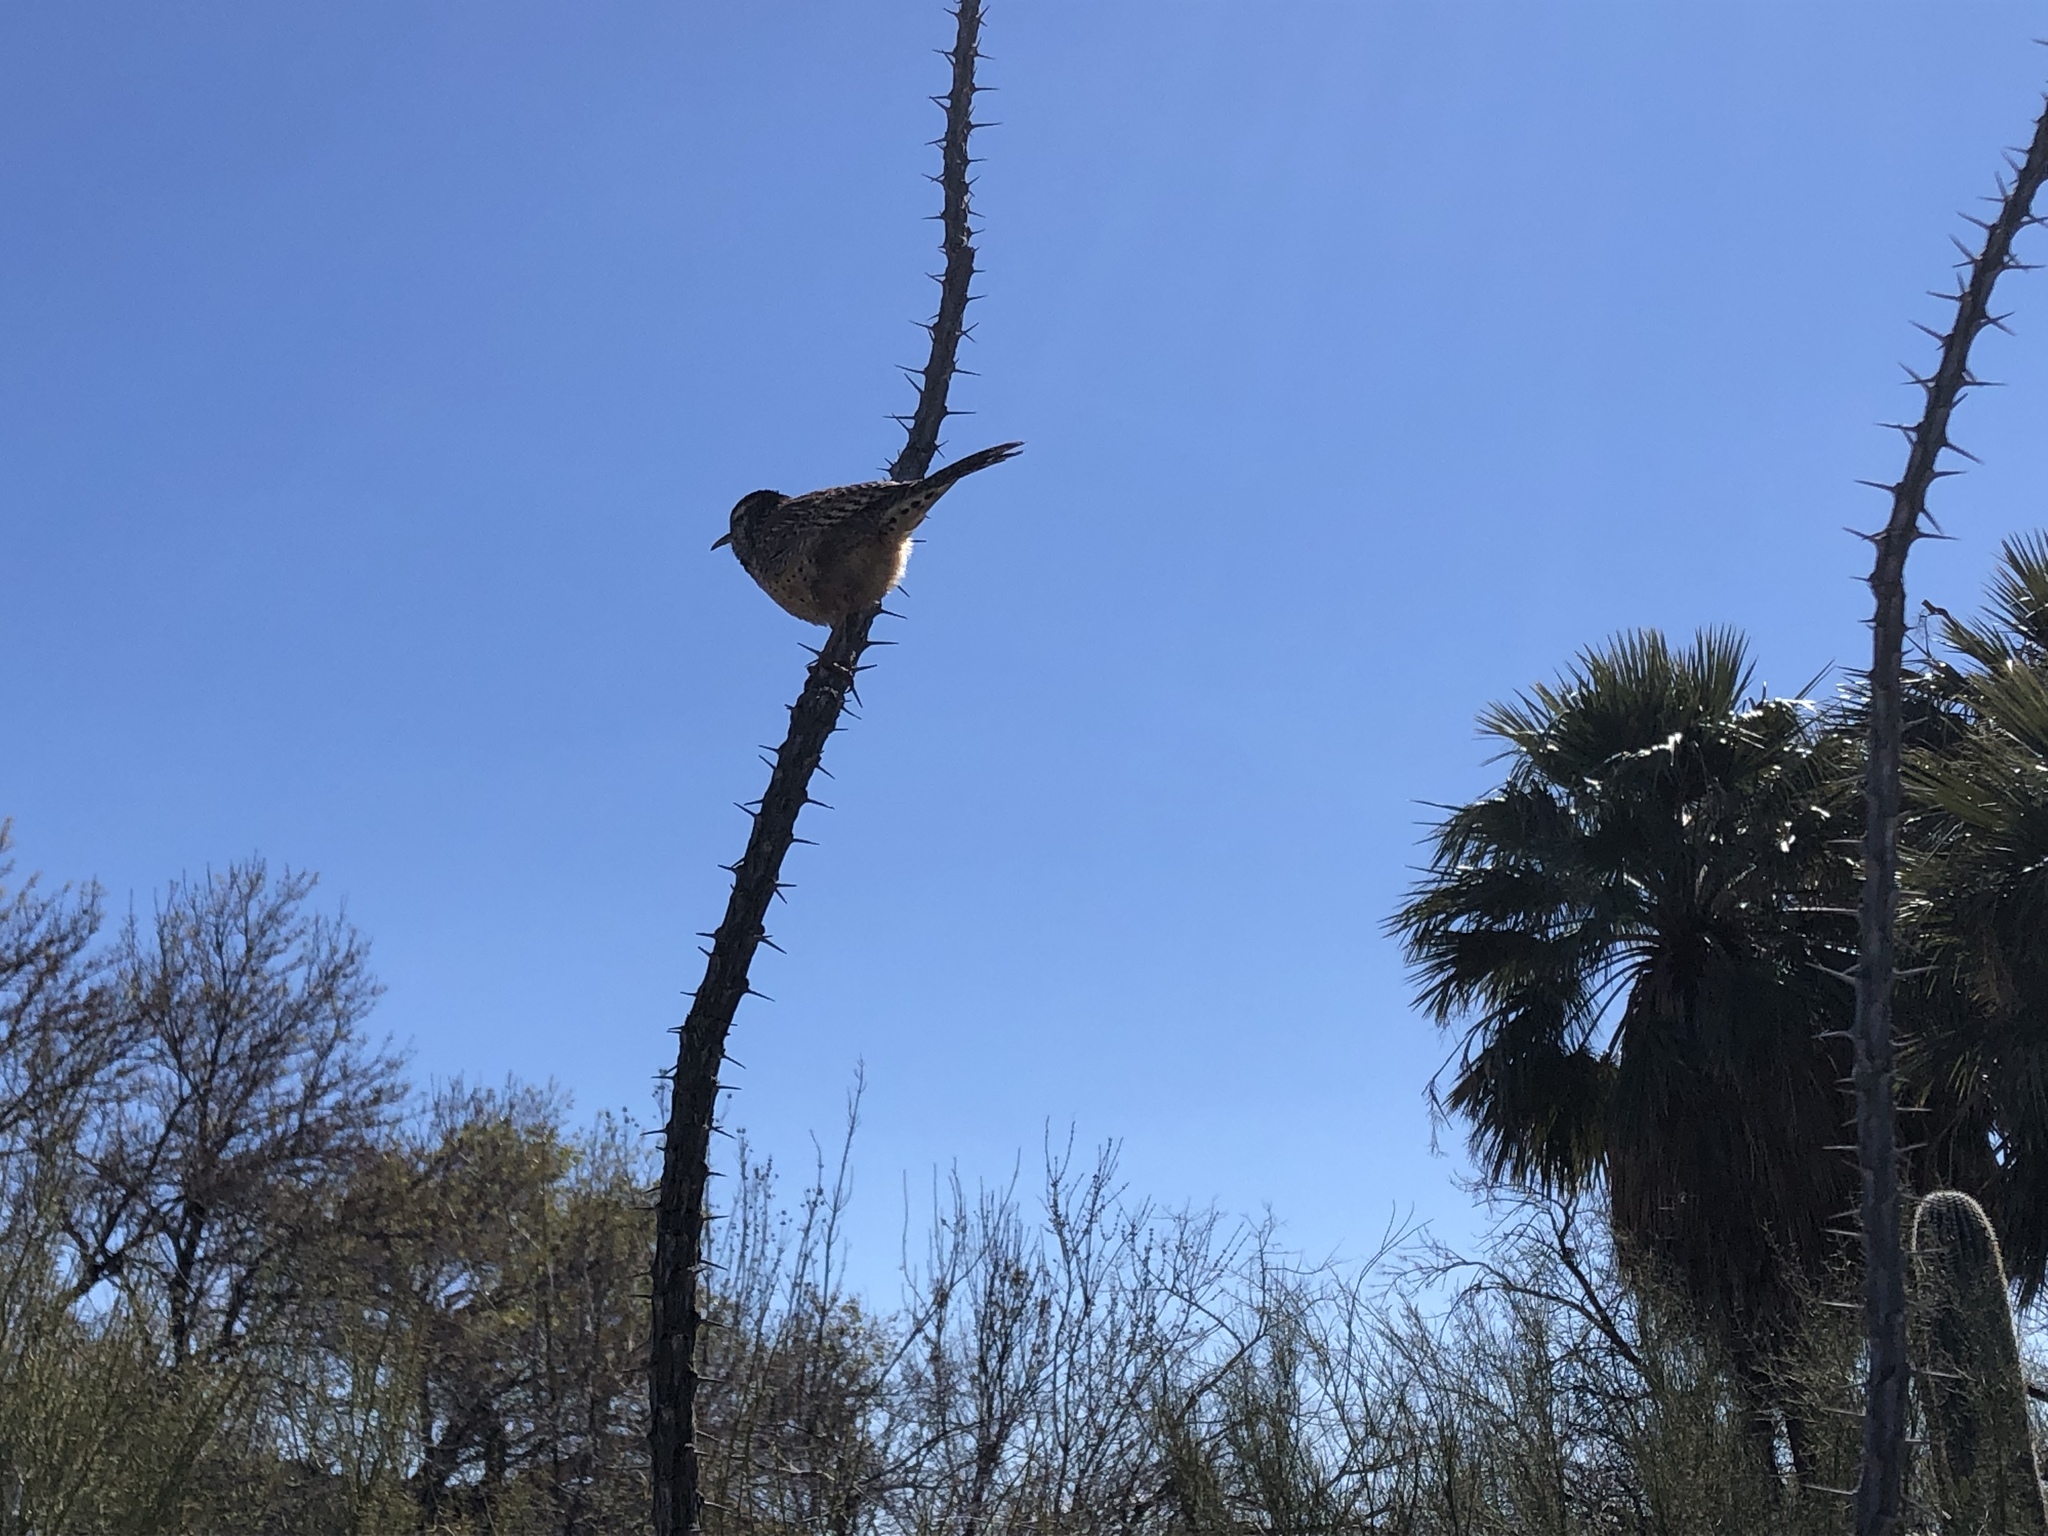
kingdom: Animalia
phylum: Chordata
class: Aves
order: Passeriformes
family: Troglodytidae
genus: Campylorhynchus
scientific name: Campylorhynchus brunneicapillus
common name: Cactus wren
